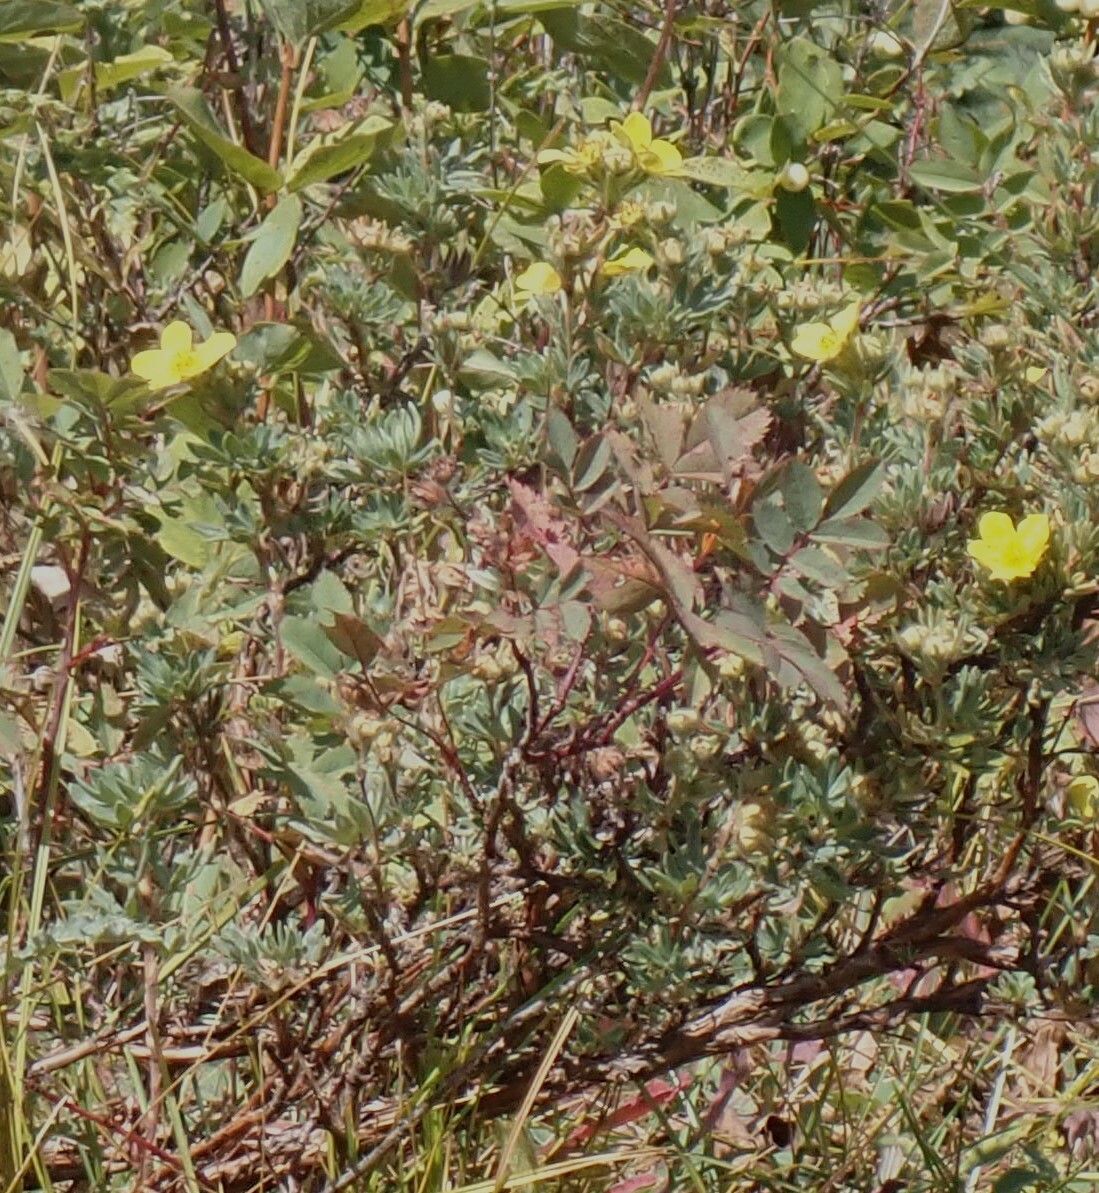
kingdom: Plantae
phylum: Tracheophyta
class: Magnoliopsida
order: Rosales
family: Rosaceae
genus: Dasiphora
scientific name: Dasiphora fruticosa
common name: Shrubby cinquefoil
